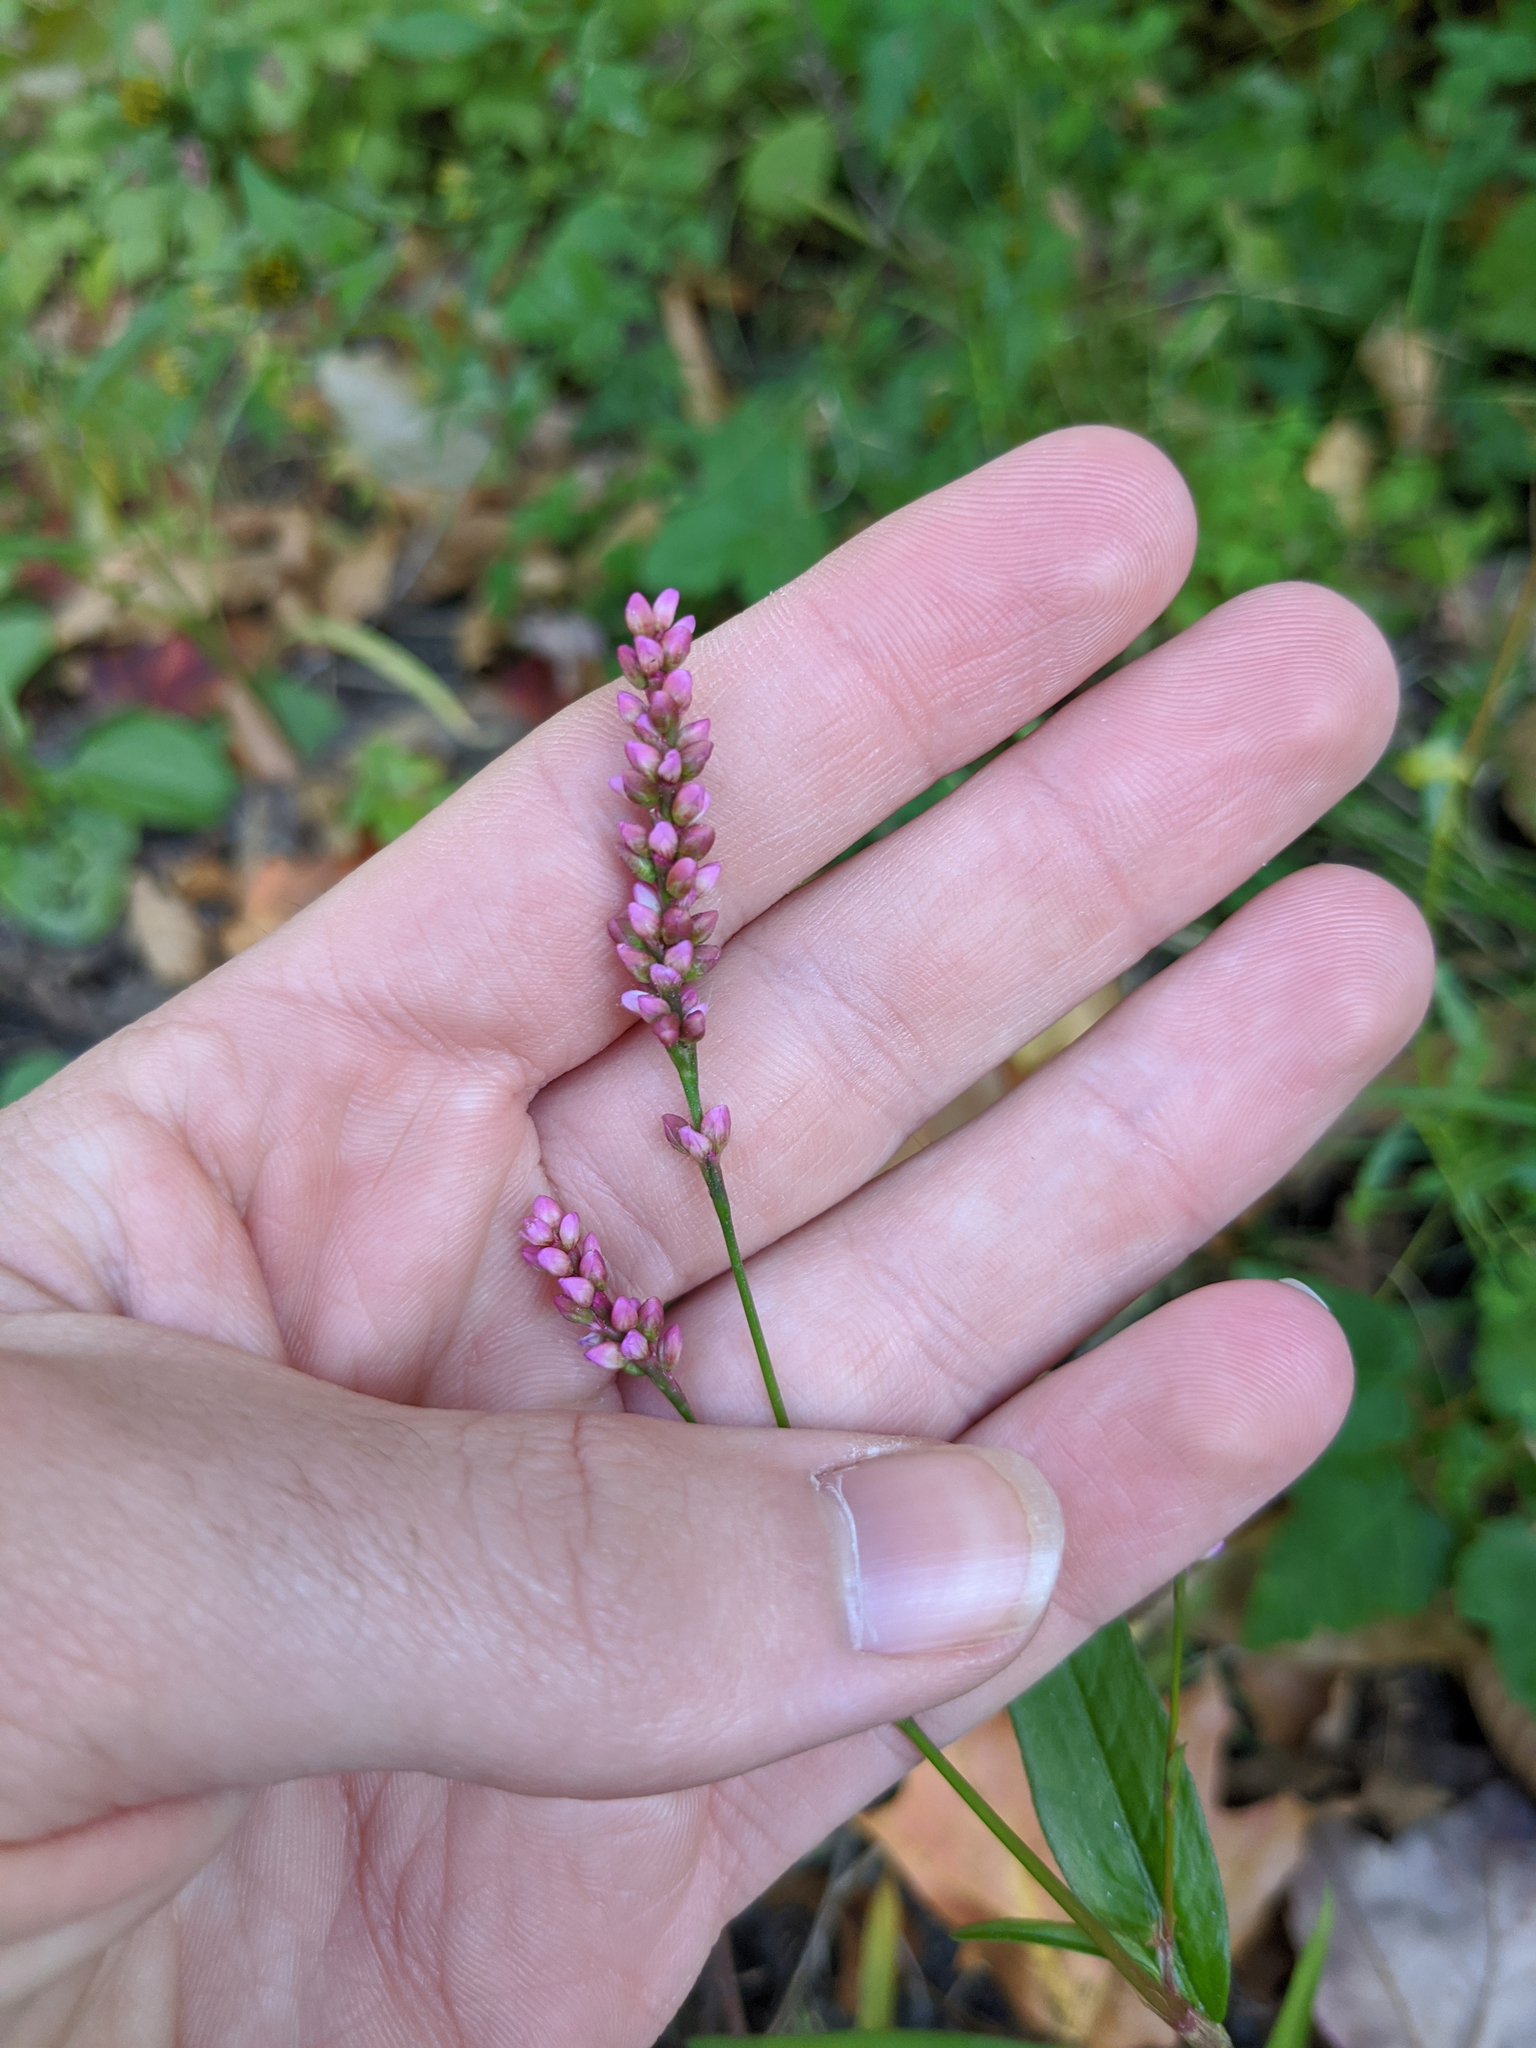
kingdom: Plantae
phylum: Tracheophyta
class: Magnoliopsida
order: Caryophyllales
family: Polygonaceae
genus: Persicaria
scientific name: Persicaria longiseta
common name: Bristly lady's-thumb
